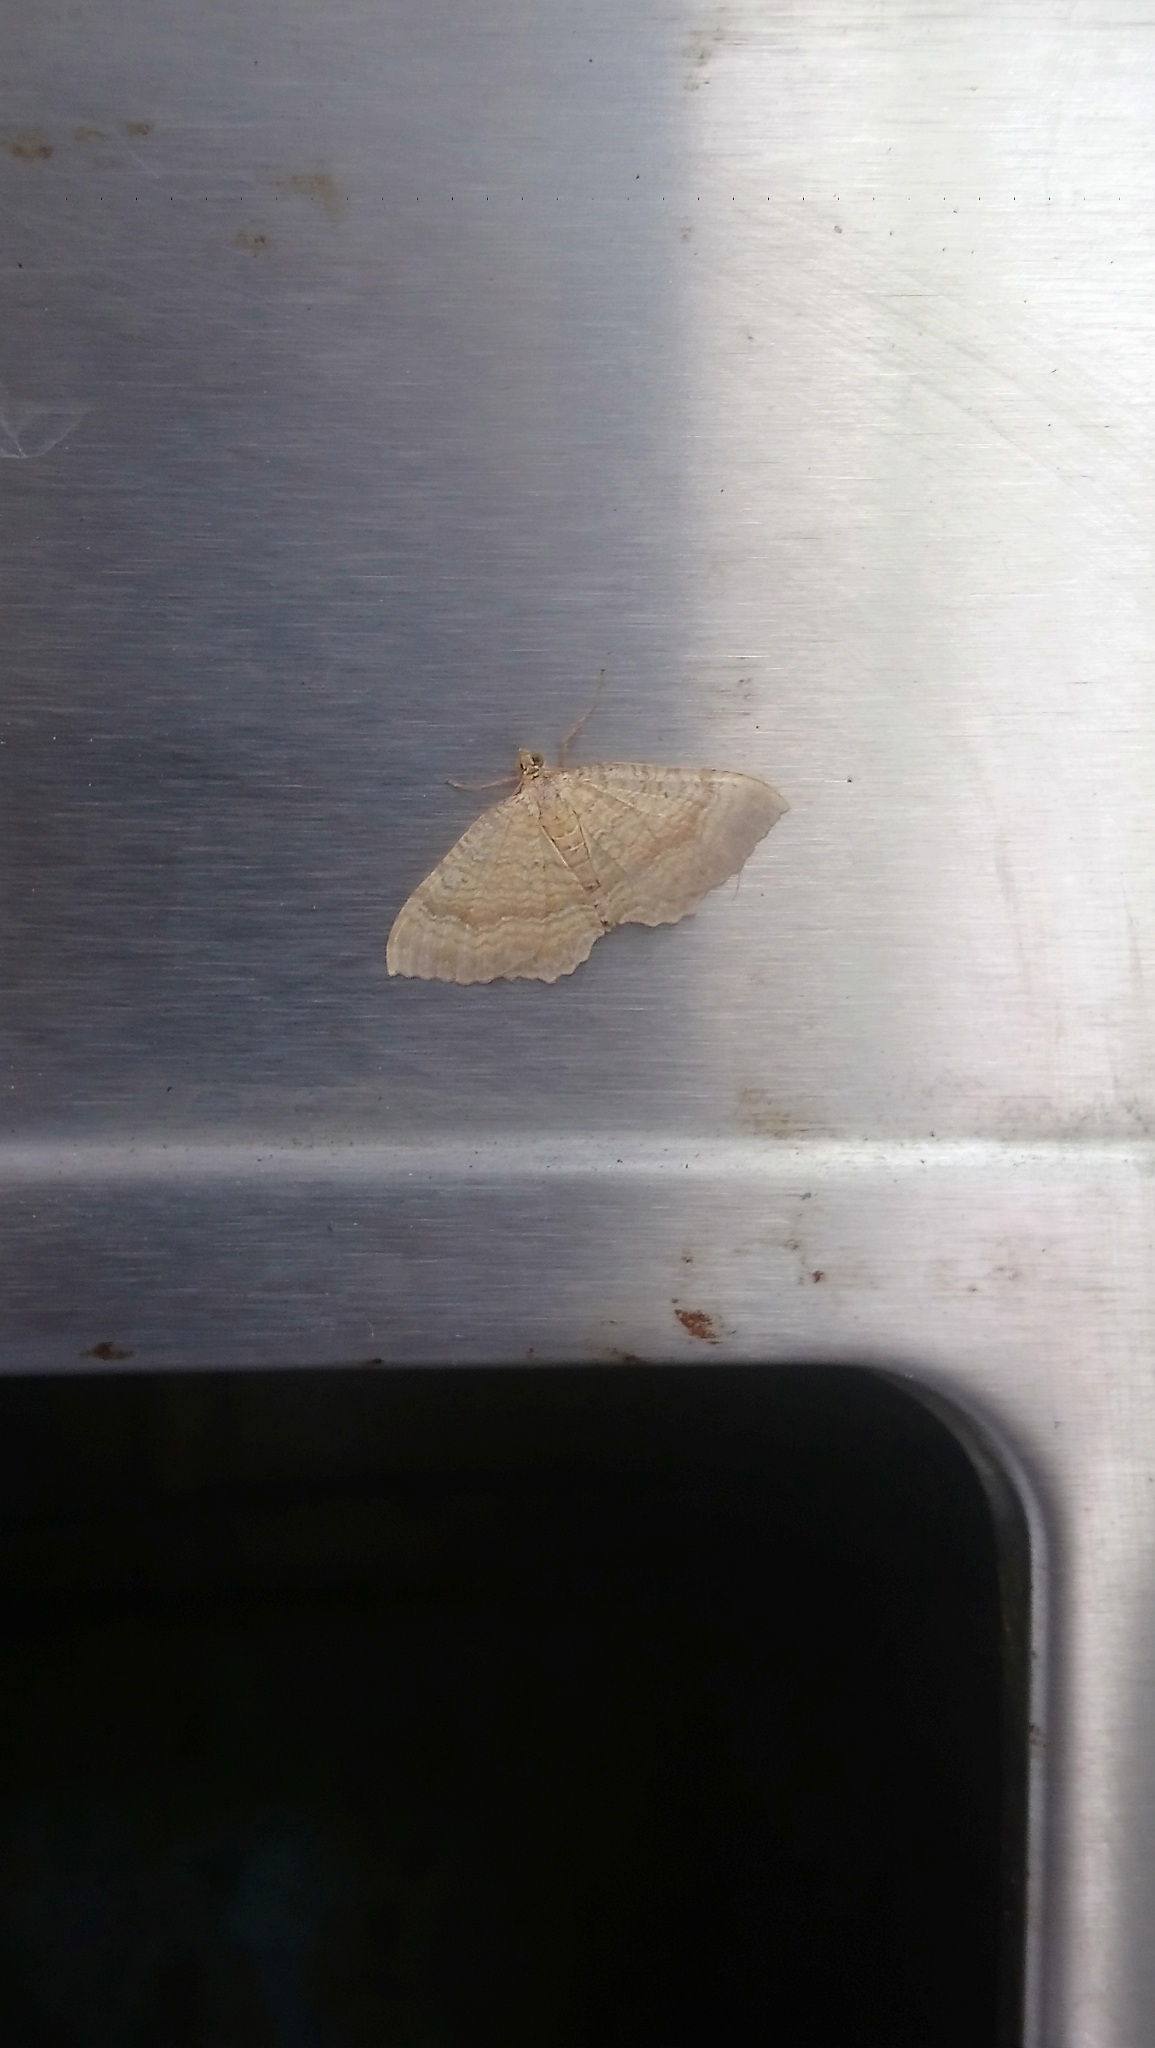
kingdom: Animalia
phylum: Arthropoda
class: Insecta
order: Lepidoptera
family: Geometridae
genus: Camptogramma
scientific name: Camptogramma bilineata
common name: Yellow shell
